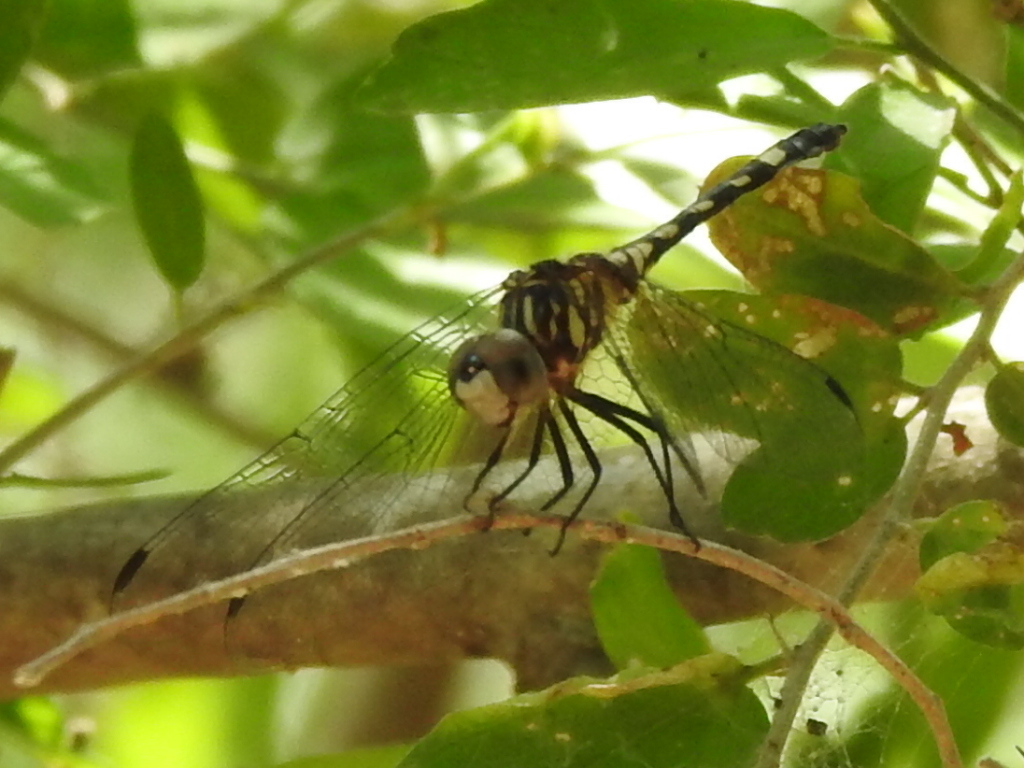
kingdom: Animalia
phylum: Arthropoda
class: Insecta
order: Odonata
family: Libellulidae
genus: Micrathyria
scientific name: Micrathyria hagenii
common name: Thornbush dasher
